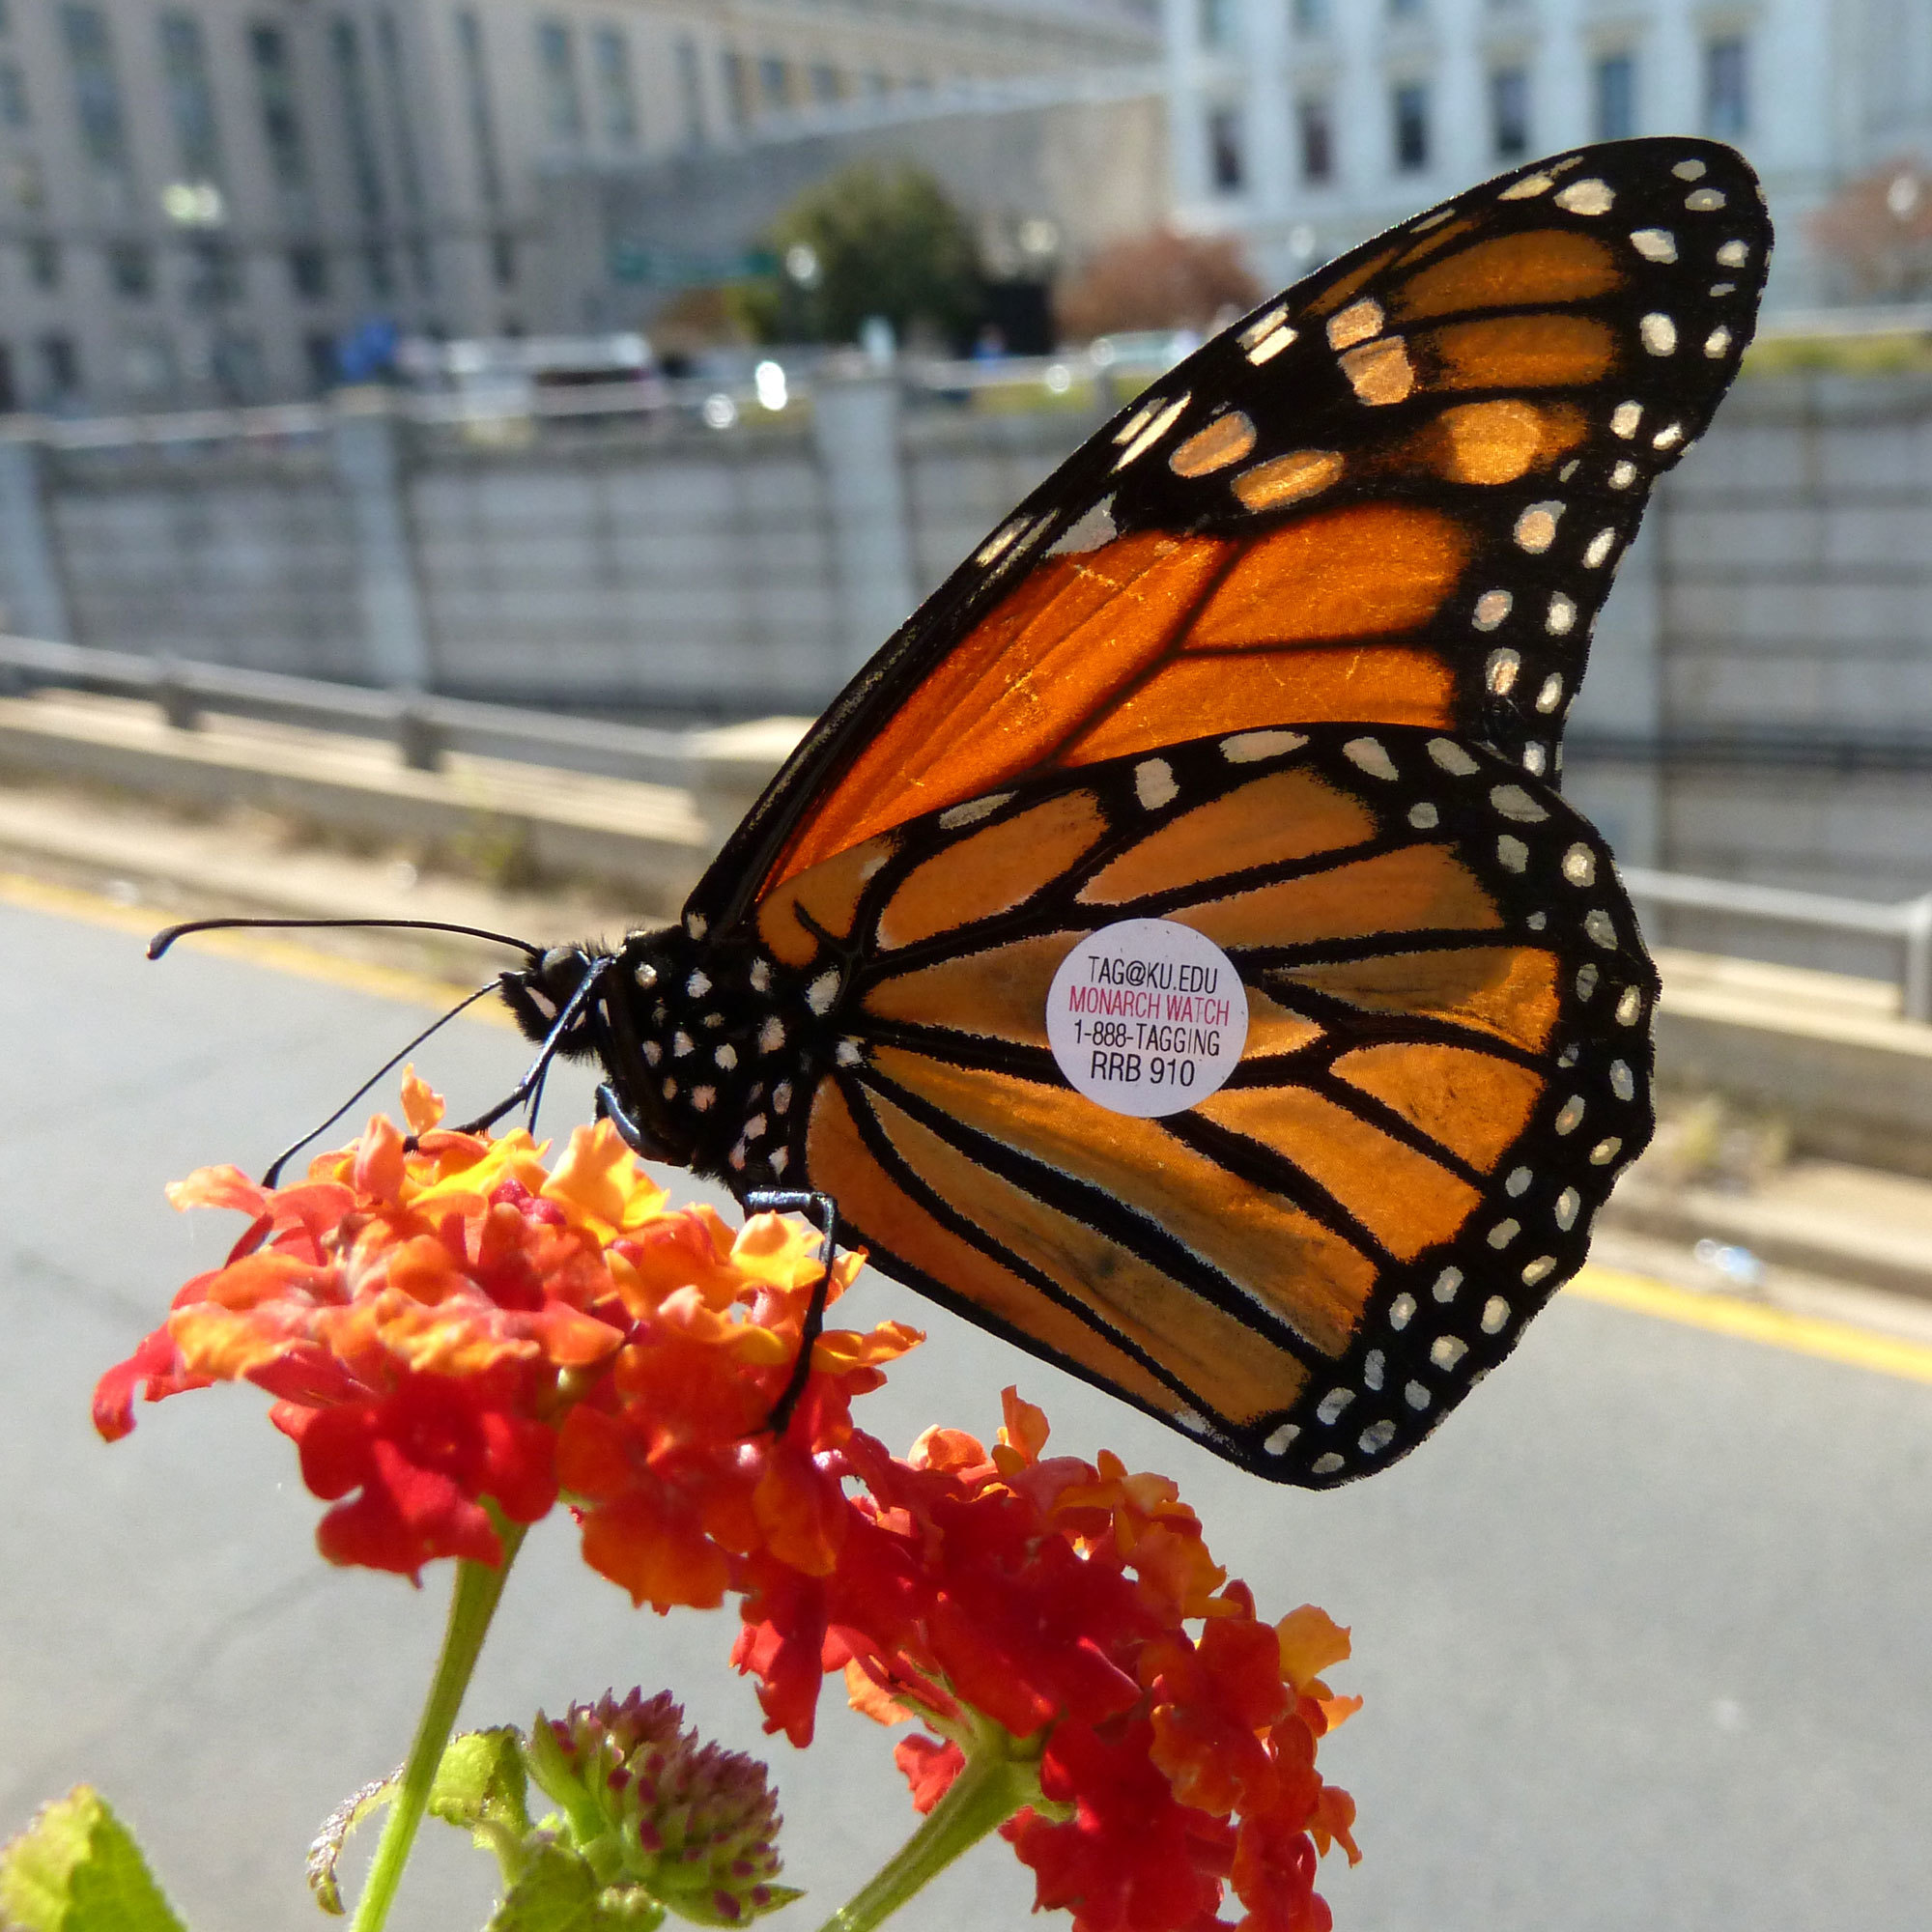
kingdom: Animalia
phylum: Arthropoda
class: Insecta
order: Lepidoptera
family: Nymphalidae
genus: Danaus
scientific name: Danaus plexippus
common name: Monarch
